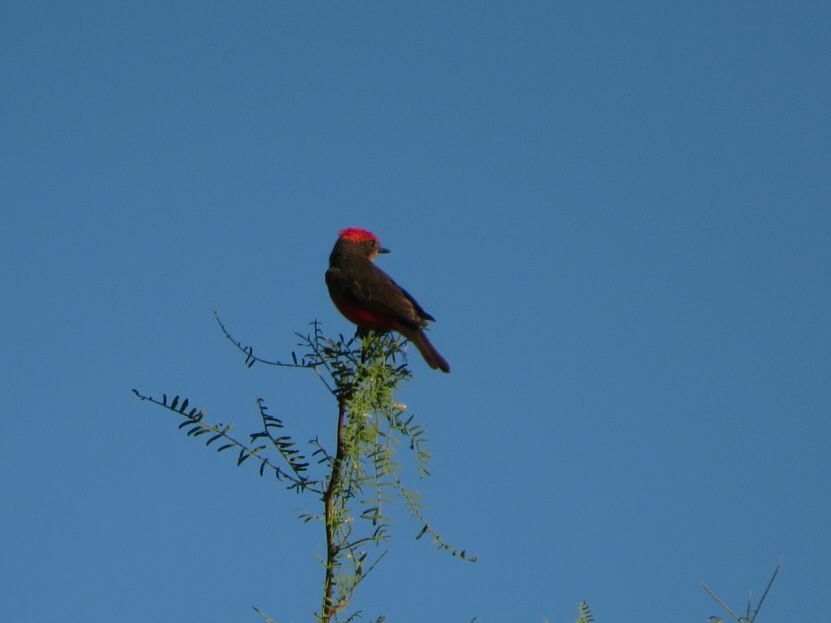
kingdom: Animalia
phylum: Chordata
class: Aves
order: Passeriformes
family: Tyrannidae
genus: Pyrocephalus
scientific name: Pyrocephalus rubinus
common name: Vermilion flycatcher
